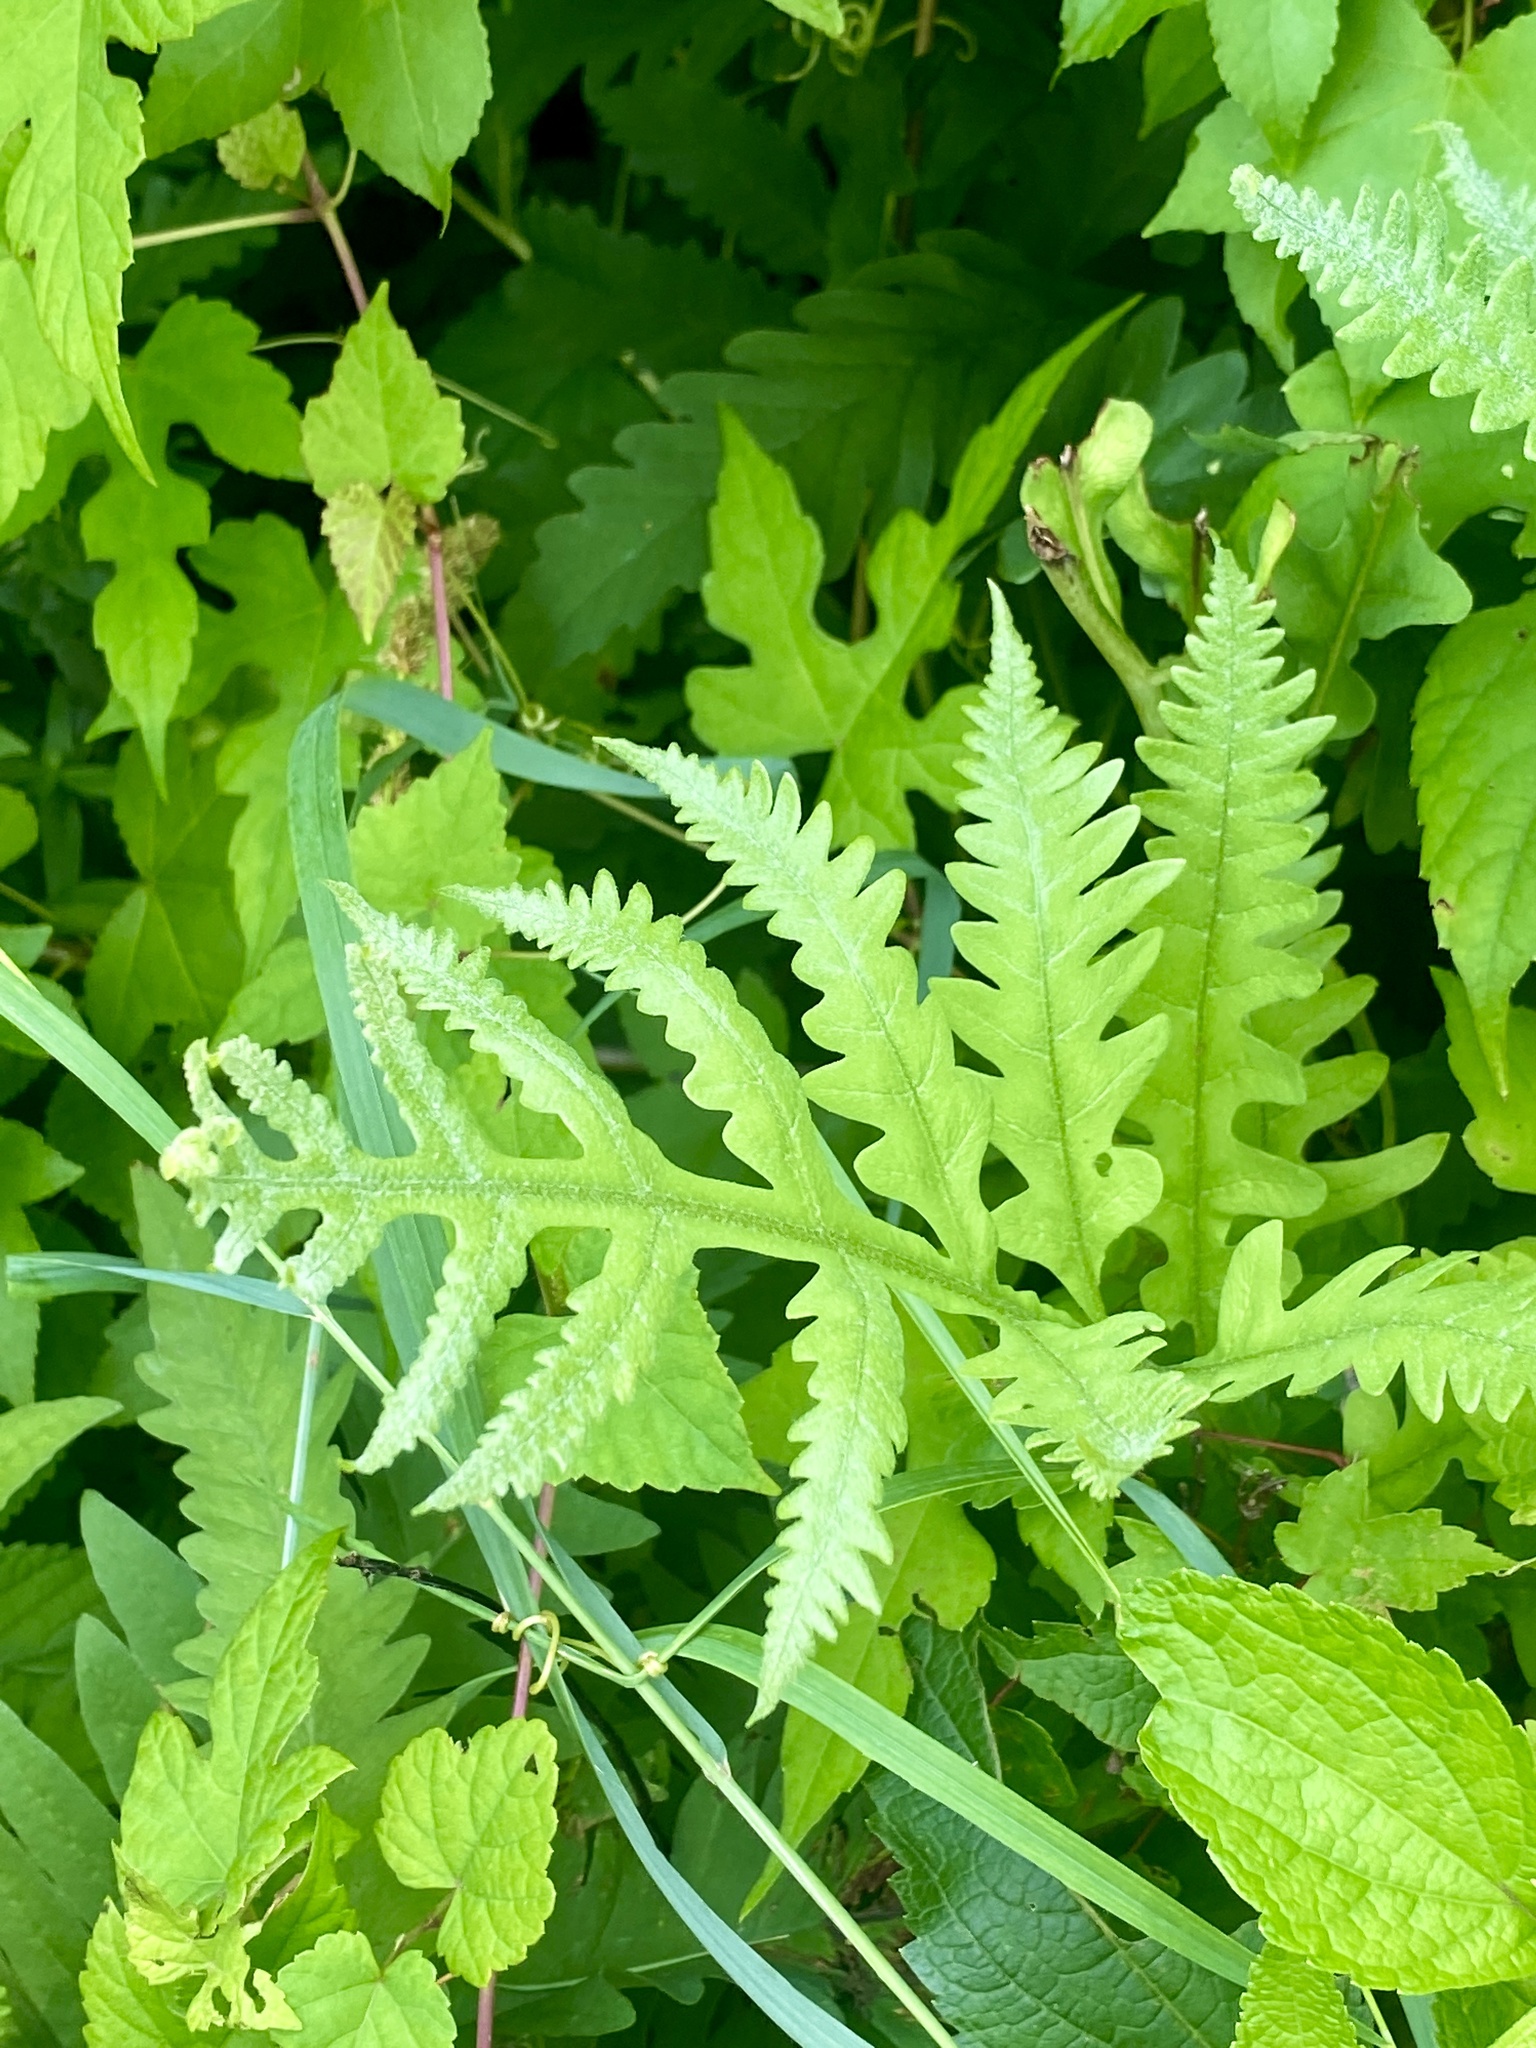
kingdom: Plantae
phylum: Tracheophyta
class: Polypodiopsida
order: Polypodiales
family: Onocleaceae
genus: Onoclea
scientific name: Onoclea sensibilis
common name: Sensitive fern
